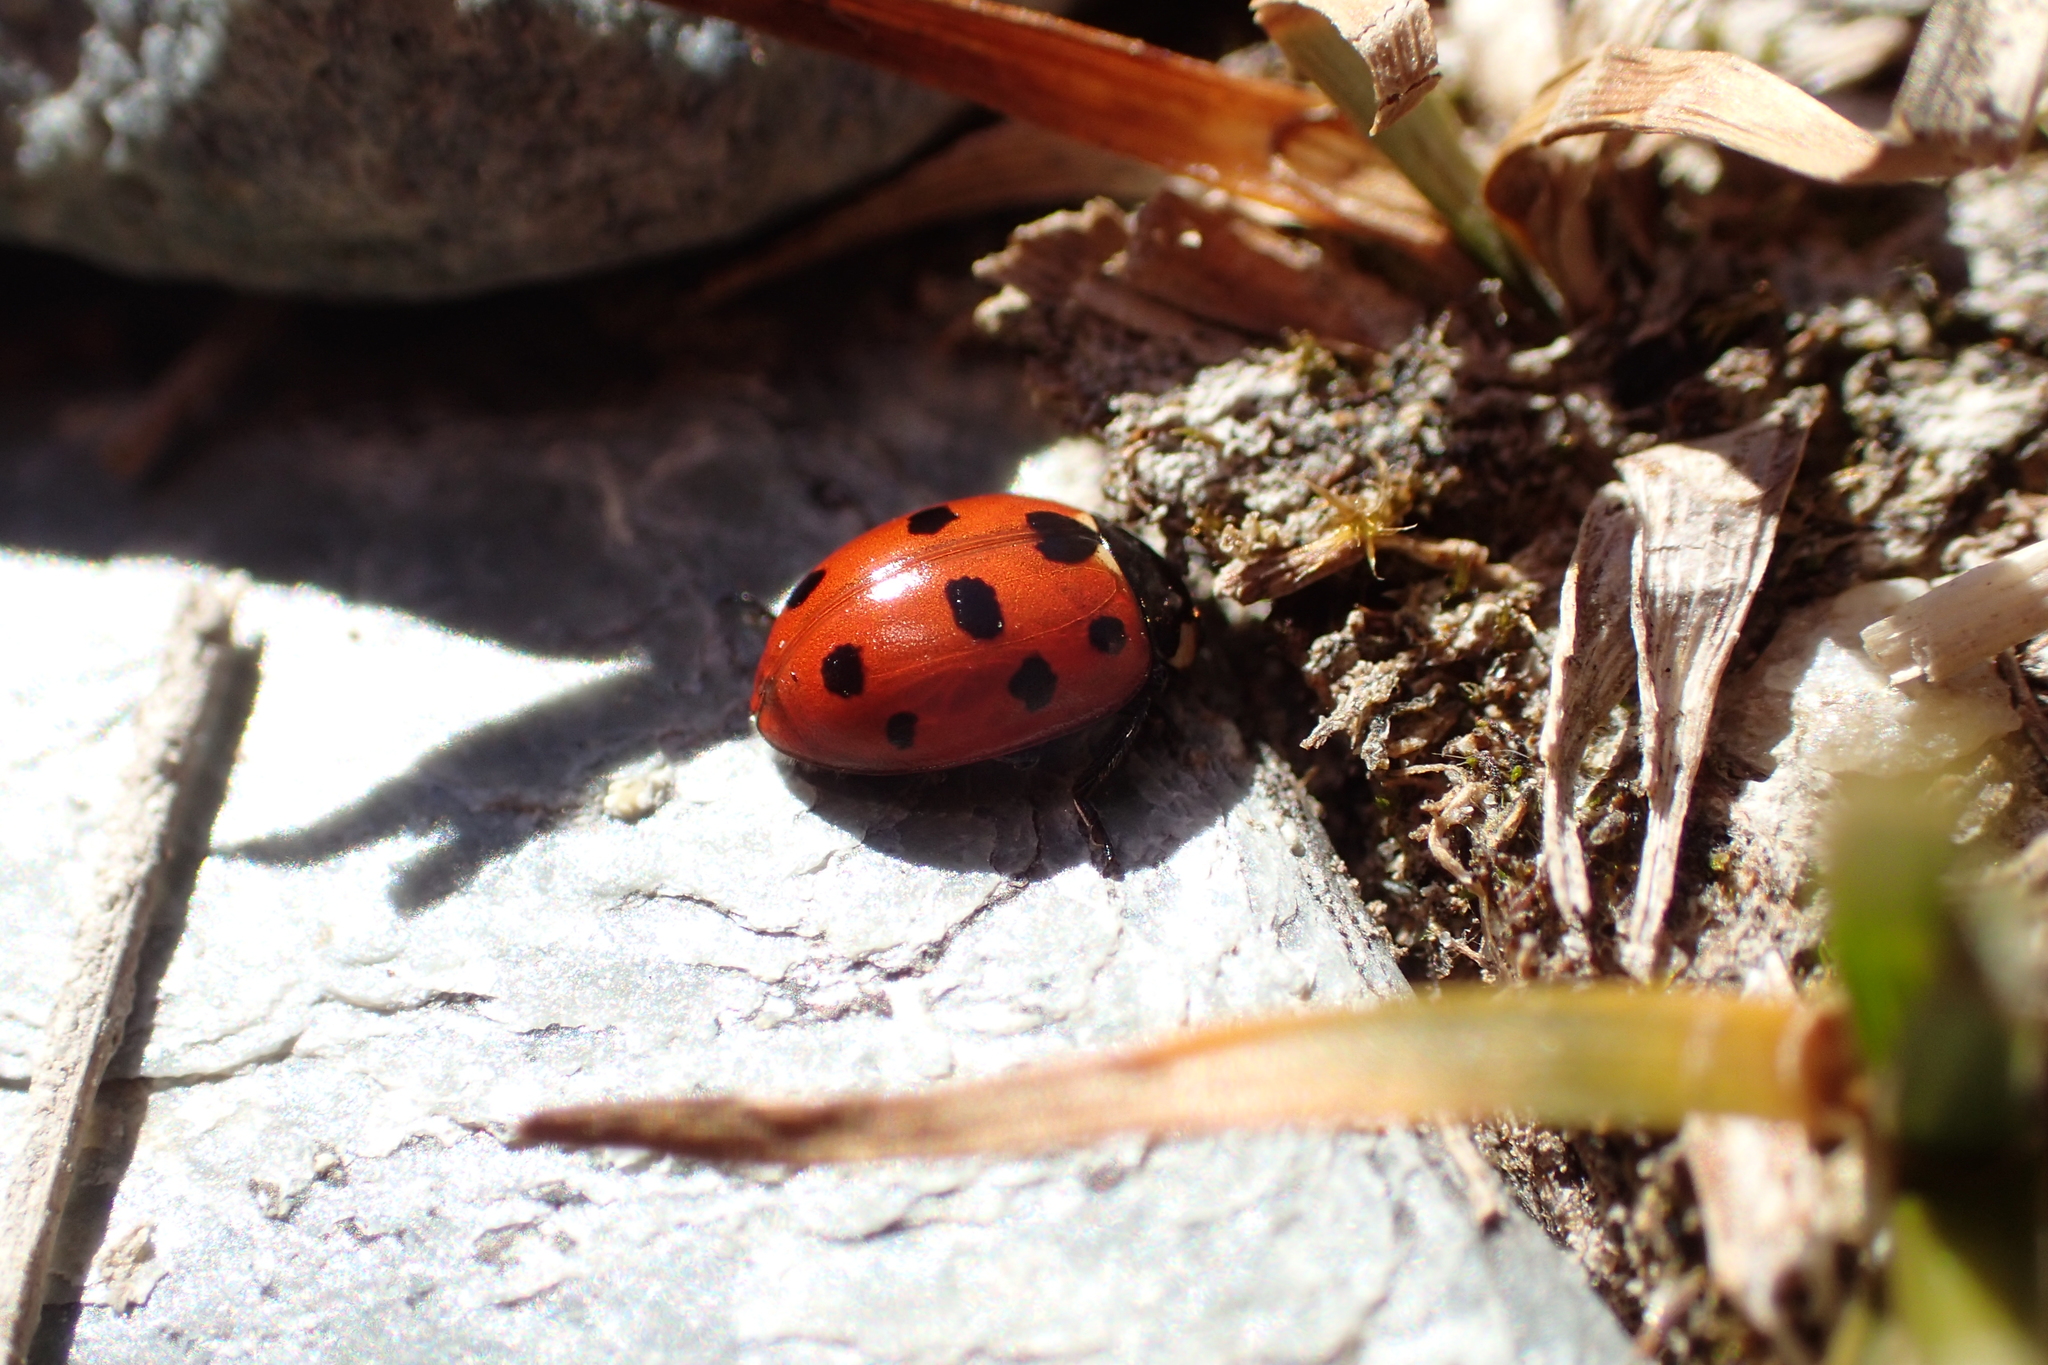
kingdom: Animalia
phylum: Arthropoda
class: Insecta
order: Coleoptera
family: Coccinellidae
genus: Coccinella
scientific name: Coccinella undecimpunctata
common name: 11-spot ladybird
